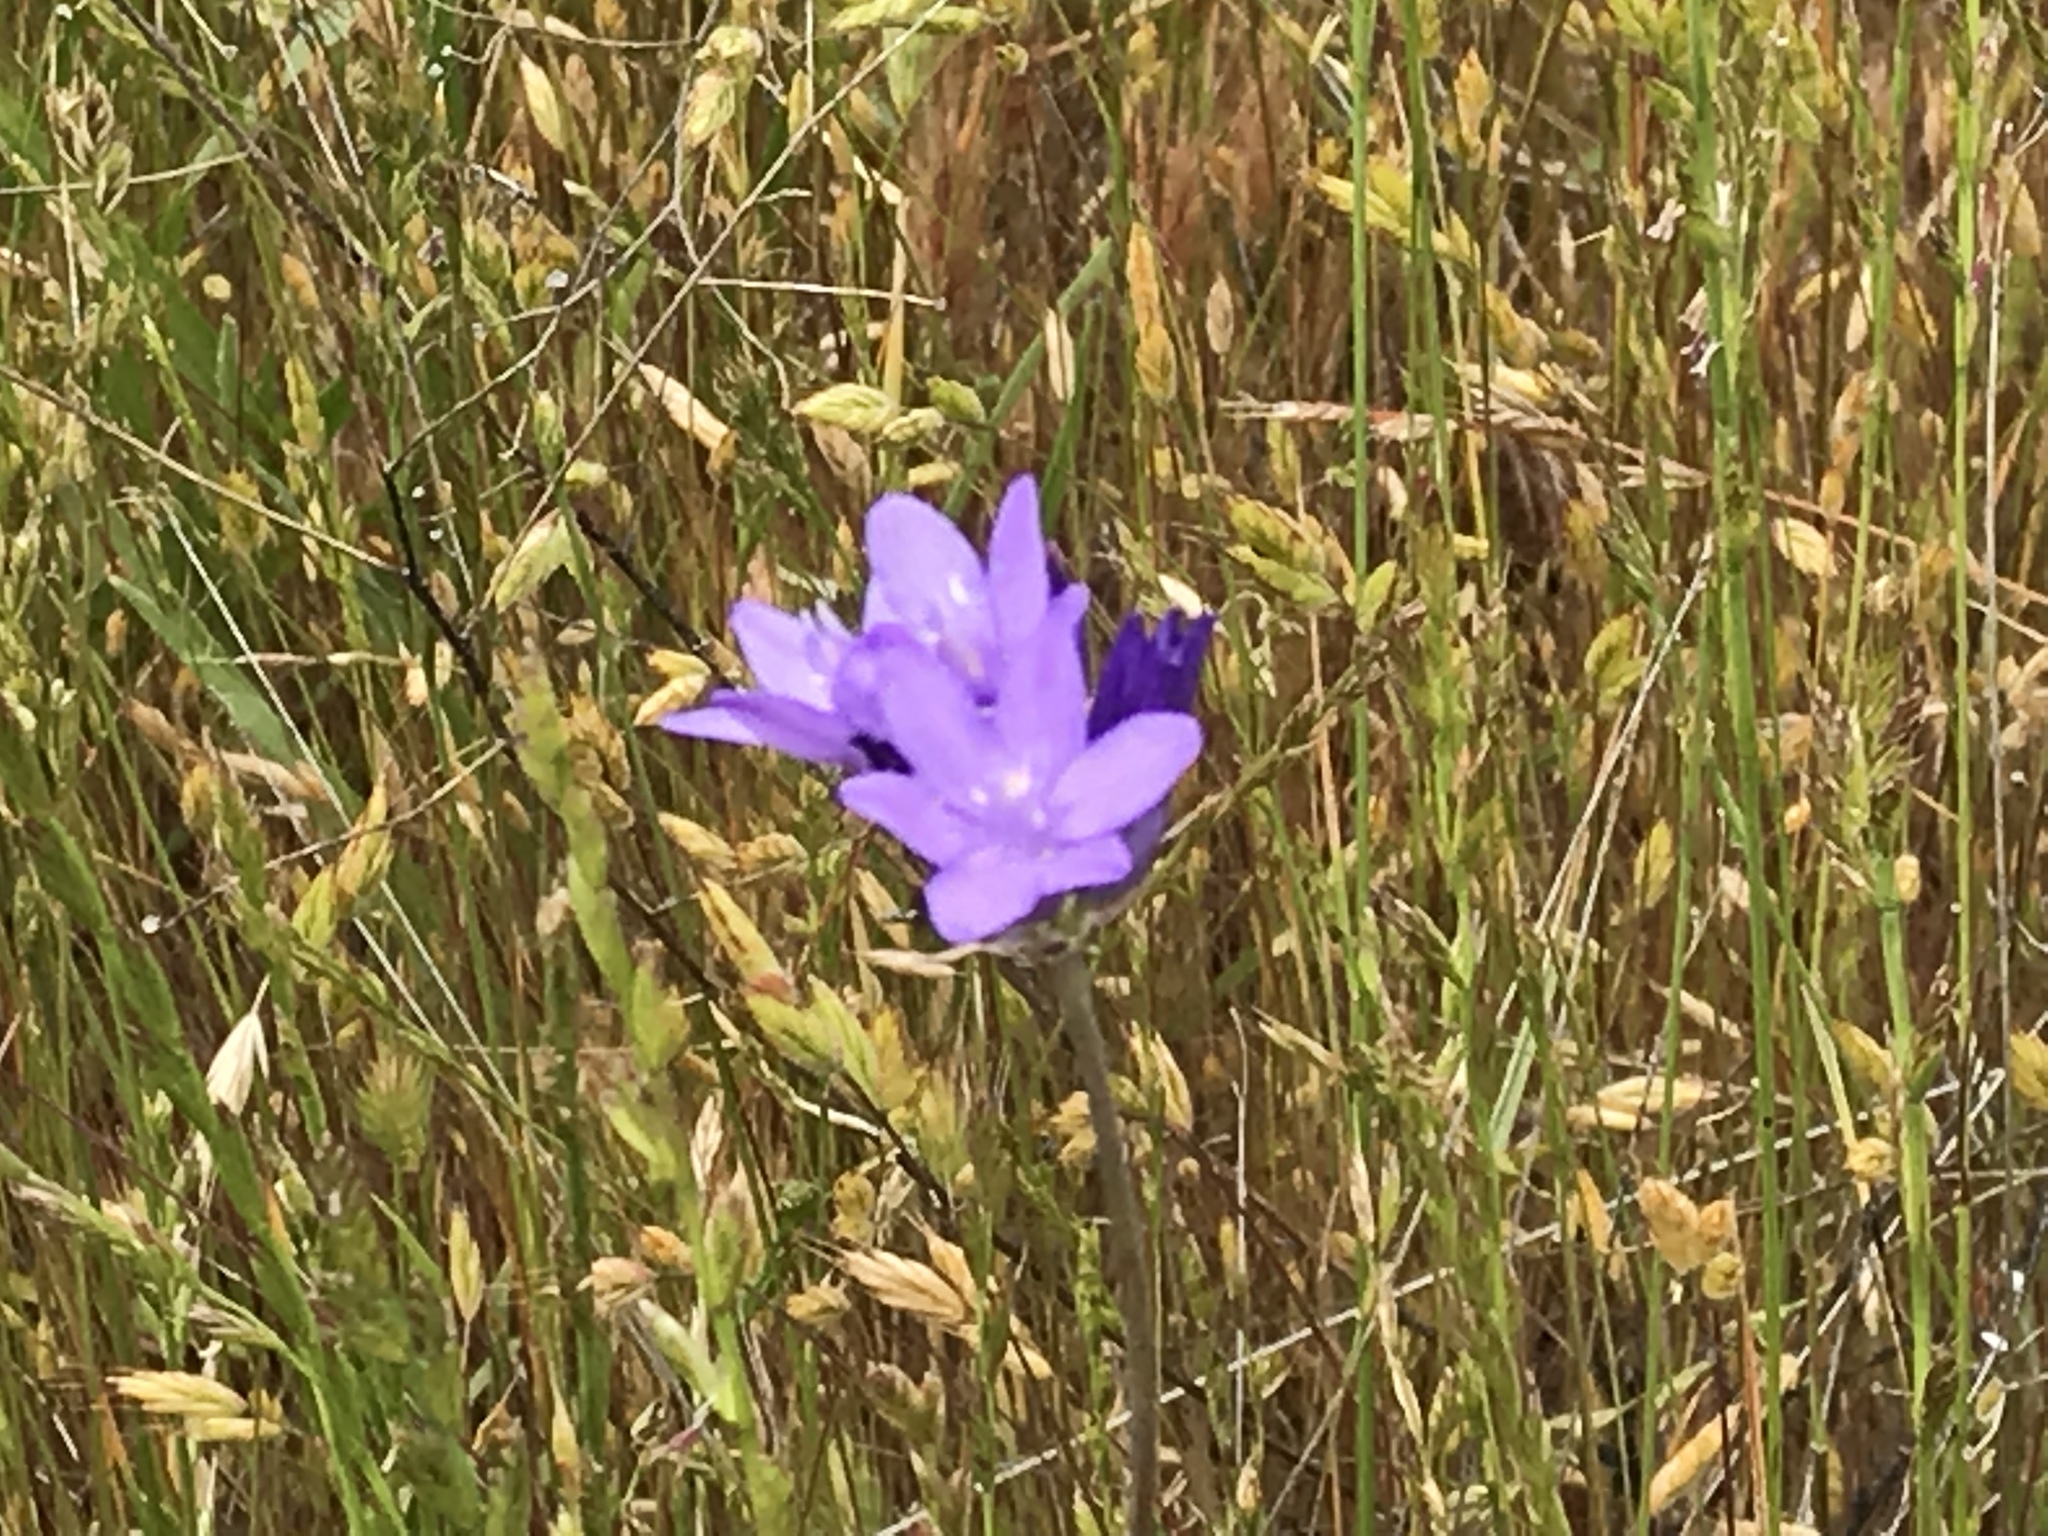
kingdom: Plantae
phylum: Tracheophyta
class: Liliopsida
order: Asparagales
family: Asparagaceae
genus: Dipterostemon
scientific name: Dipterostemon capitatus
